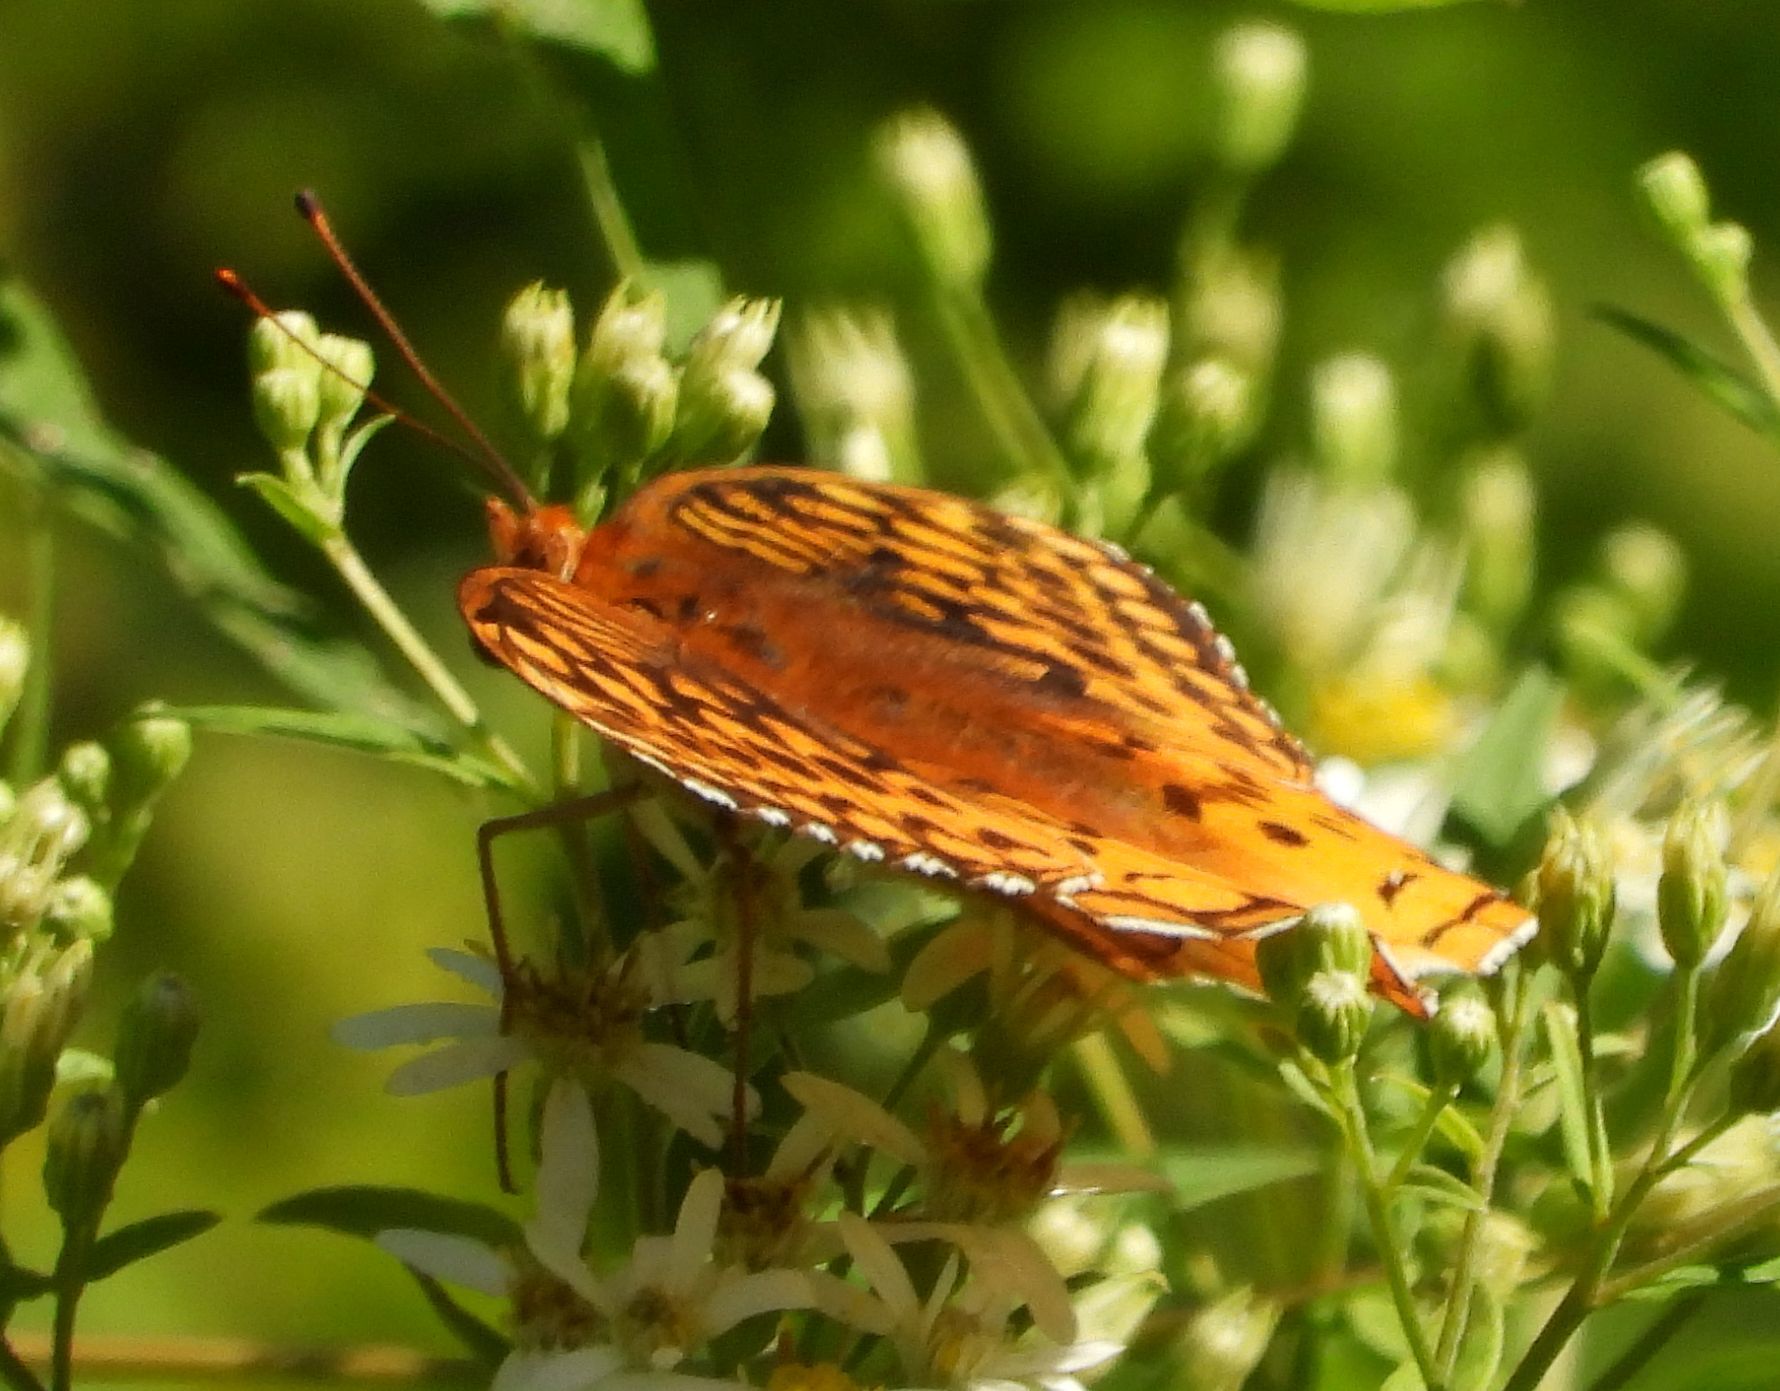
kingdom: Animalia
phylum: Arthropoda
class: Insecta
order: Lepidoptera
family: Nymphalidae
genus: Speyeria
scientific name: Speyeria cybele
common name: Great spangled fritillary
